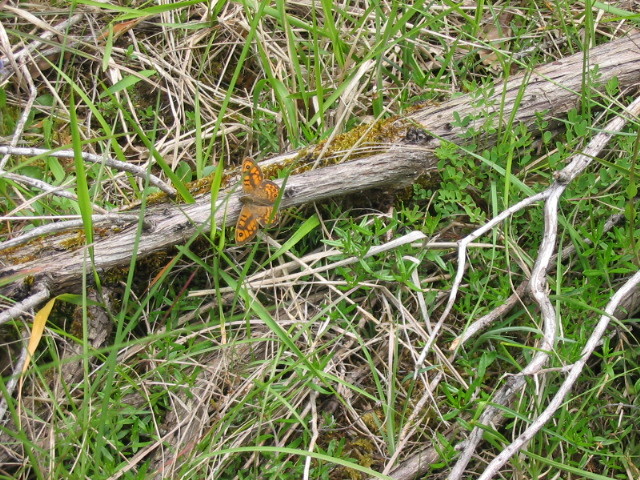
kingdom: Animalia
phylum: Arthropoda
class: Insecta
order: Lepidoptera
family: Nymphalidae
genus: Pararge
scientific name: Pararge Lasiommata megera
